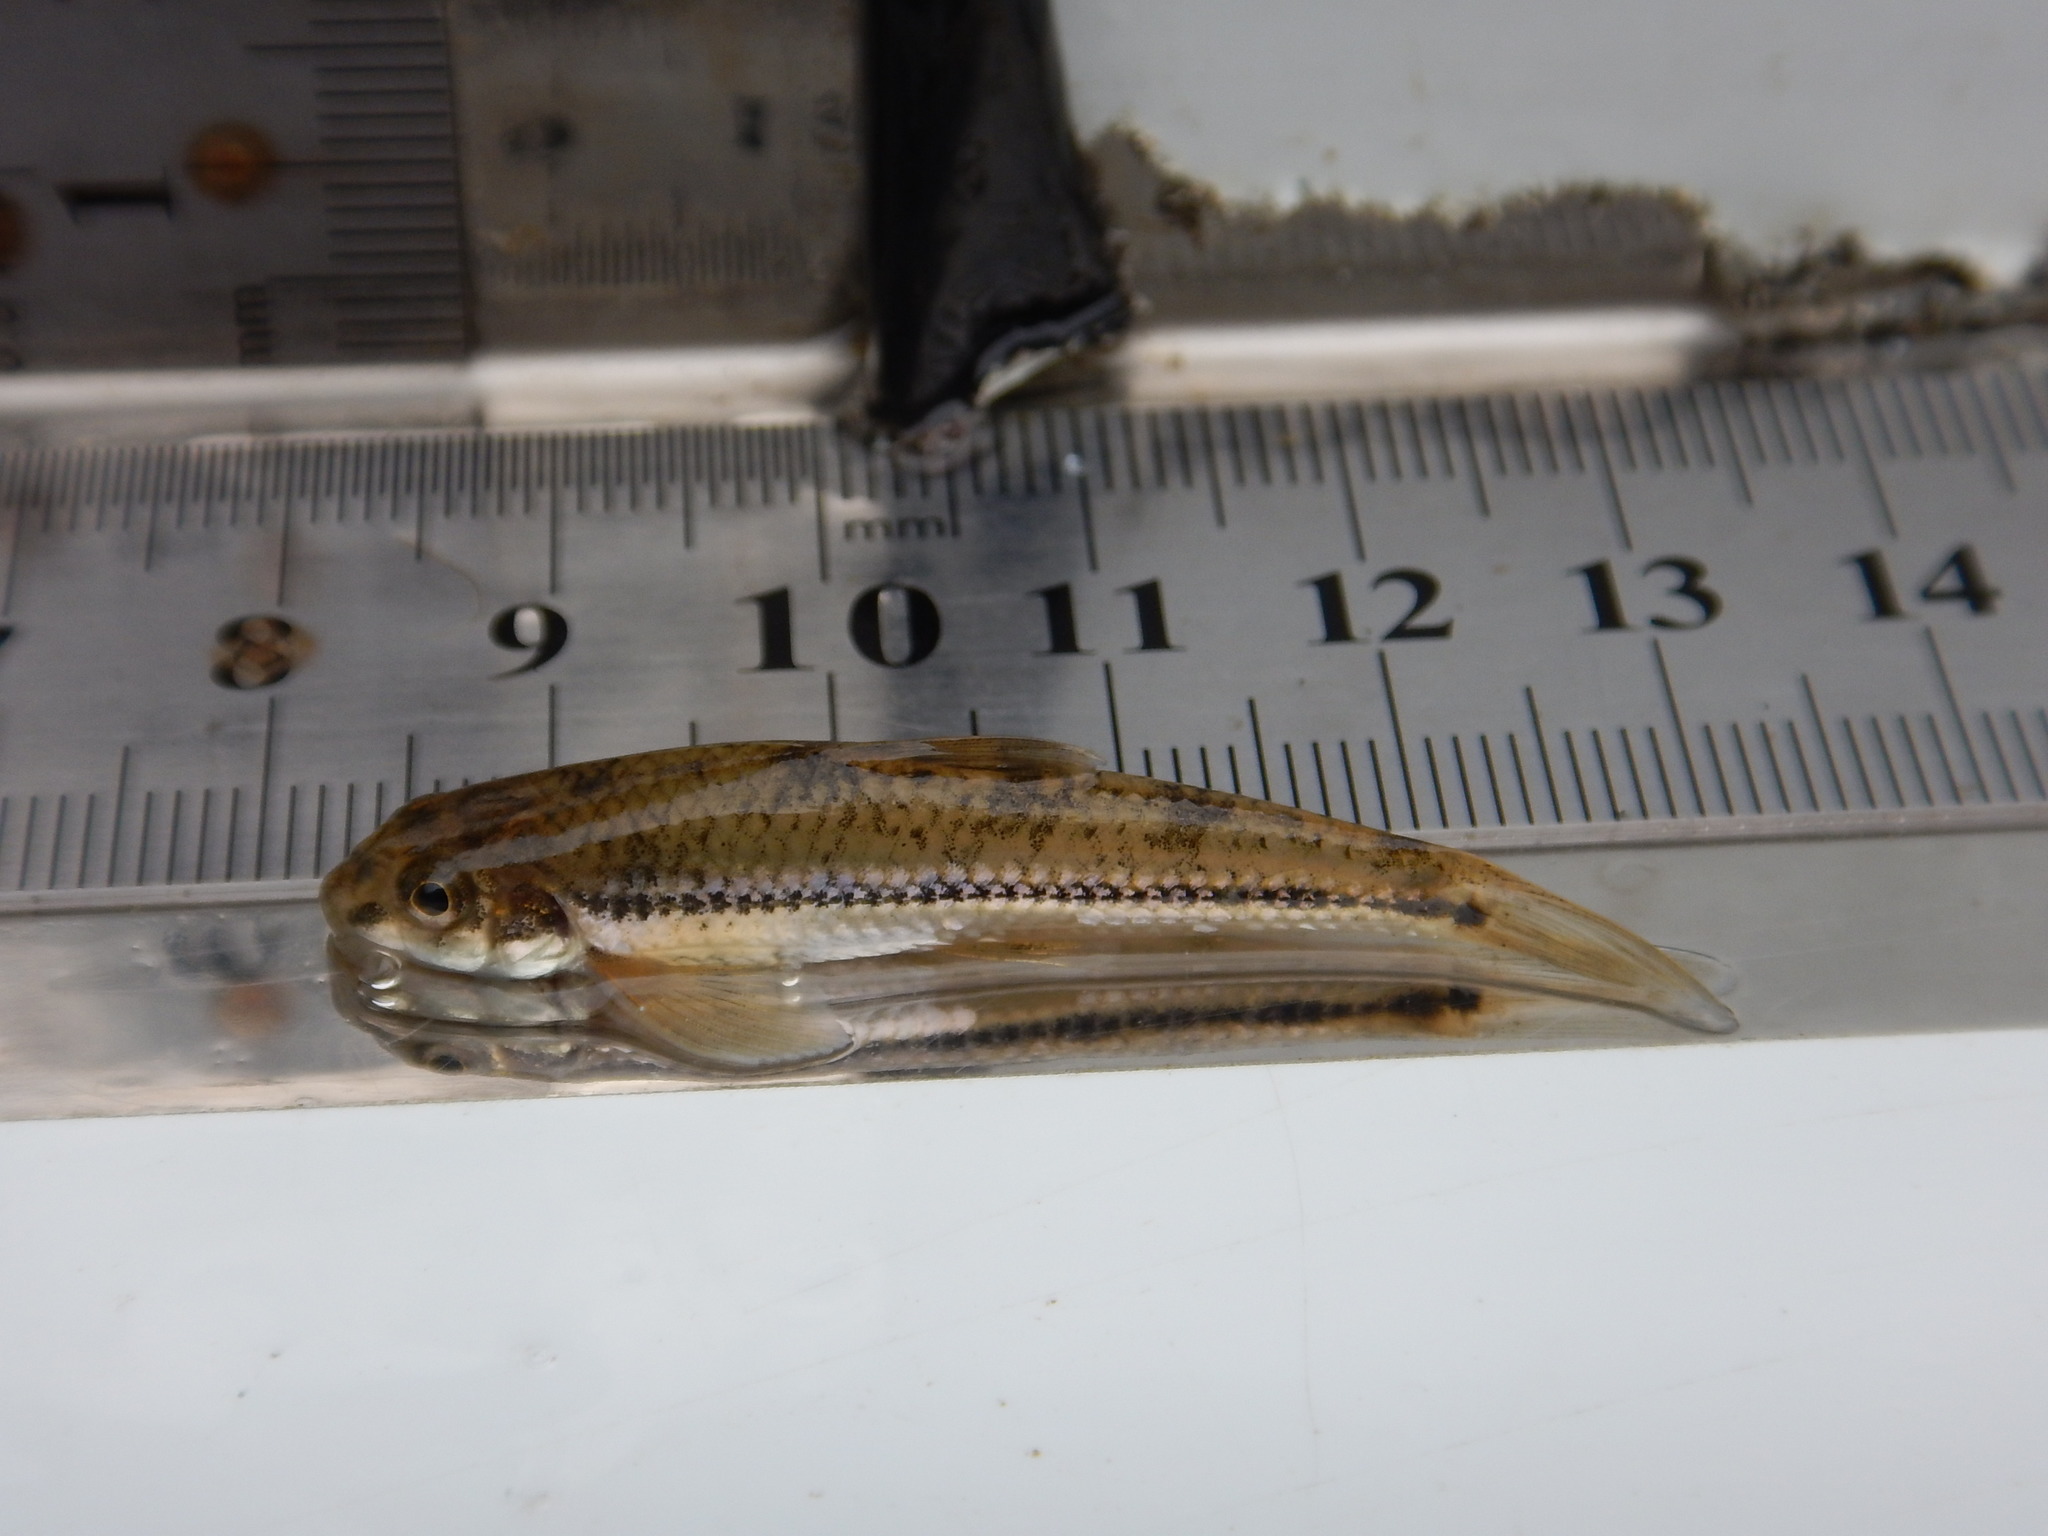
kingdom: Animalia
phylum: Chordata
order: Cypriniformes
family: Cyprinidae
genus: Microphysogobio
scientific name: Microphysogobio brevirostris
